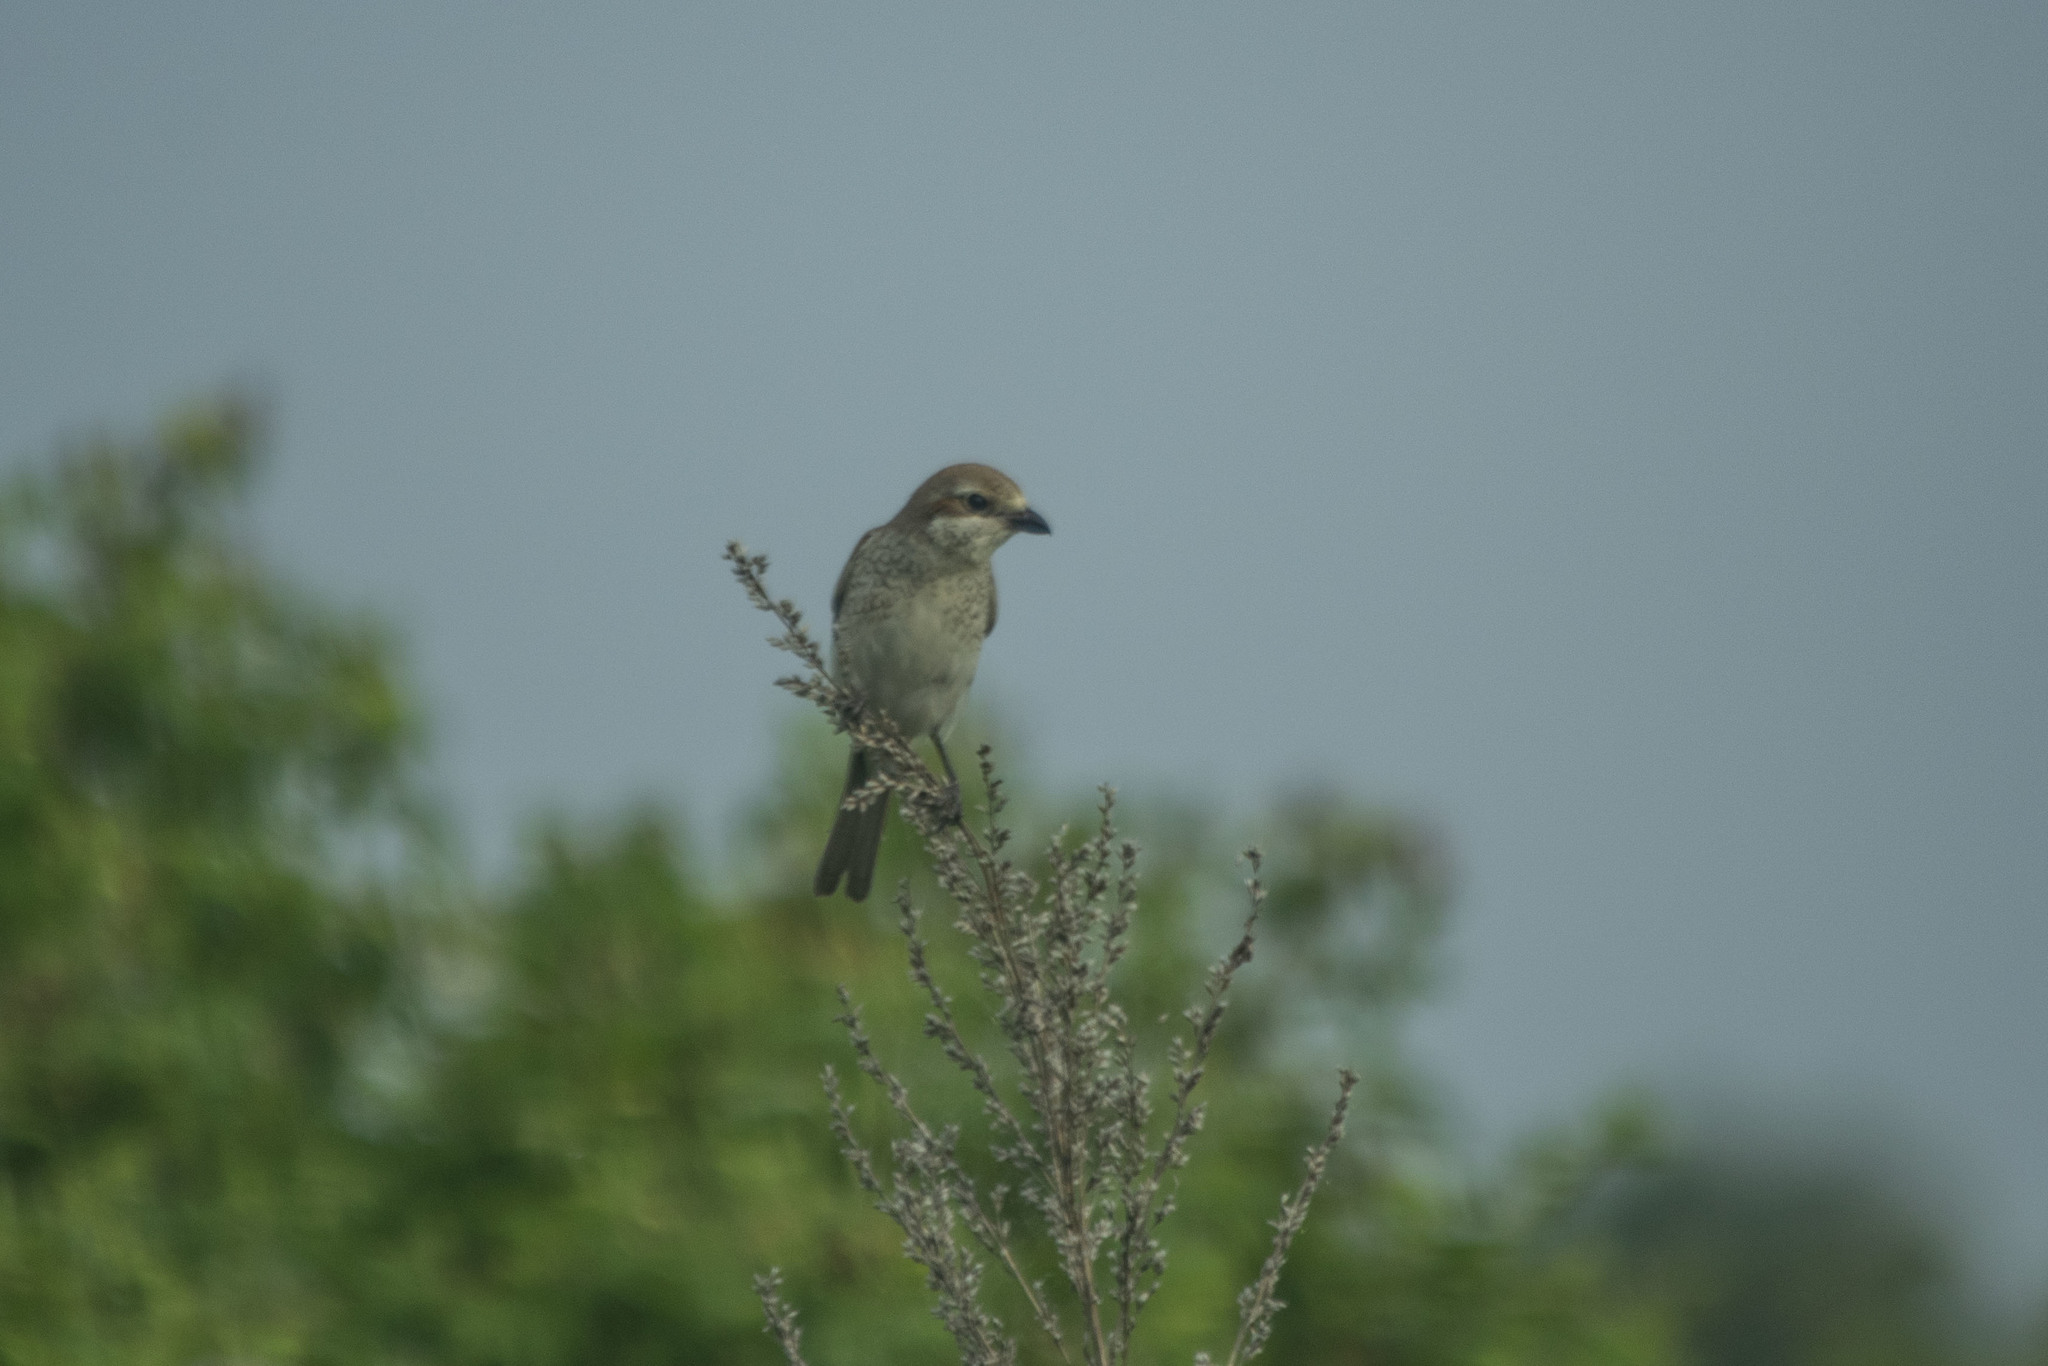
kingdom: Animalia
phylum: Chordata
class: Aves
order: Passeriformes
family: Laniidae
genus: Lanius
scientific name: Lanius collurio
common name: Red-backed shrike
